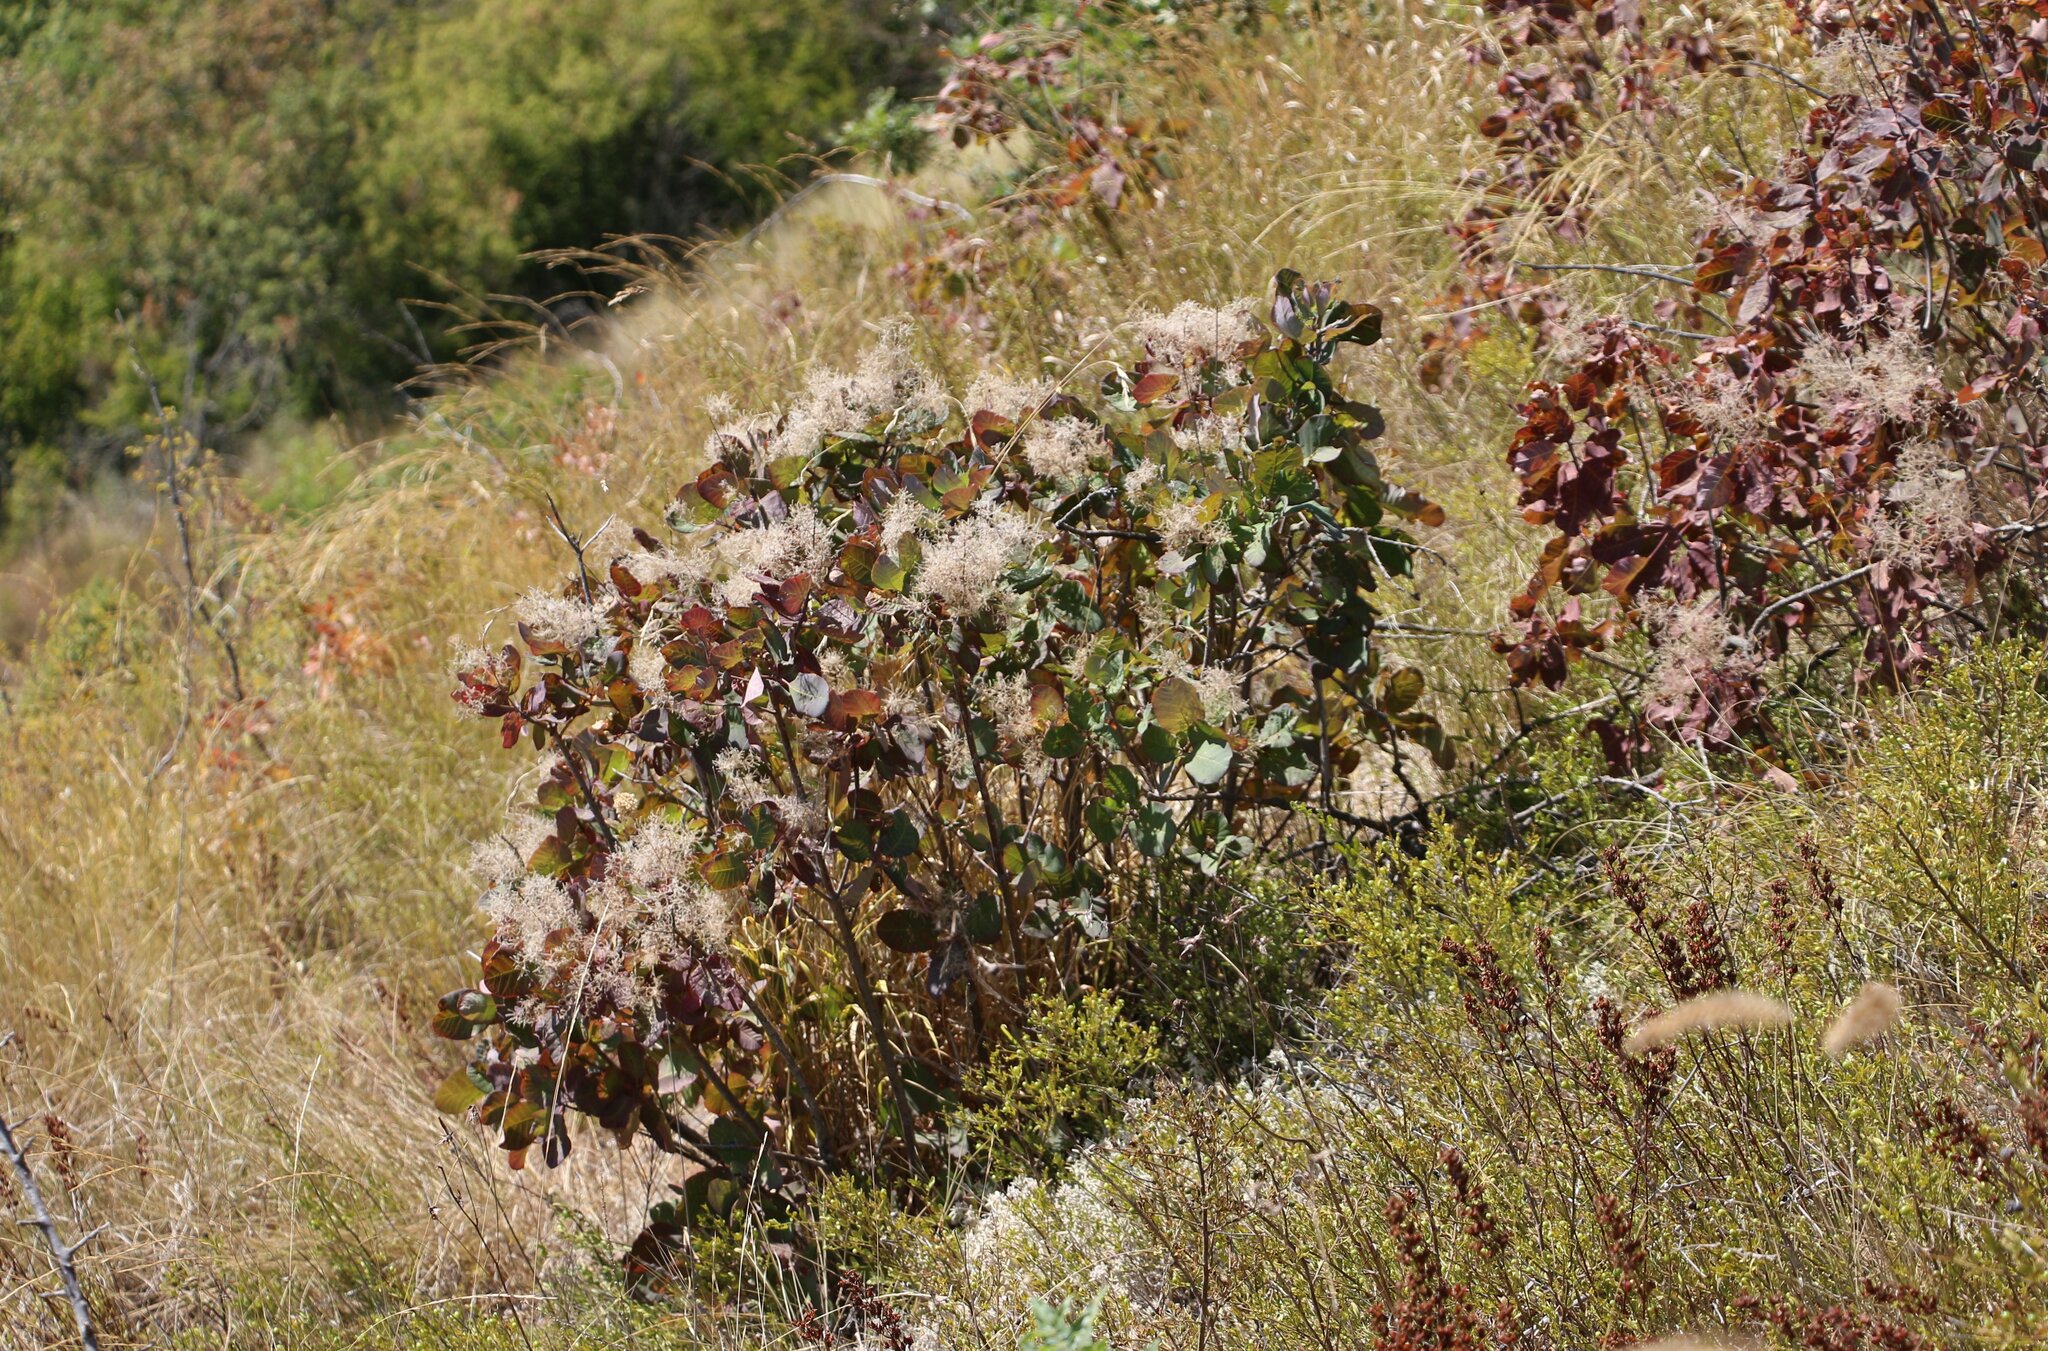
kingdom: Plantae
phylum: Tracheophyta
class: Magnoliopsida
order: Sapindales
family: Anacardiaceae
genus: Cotinus
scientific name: Cotinus coggygria
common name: Smoke-tree
